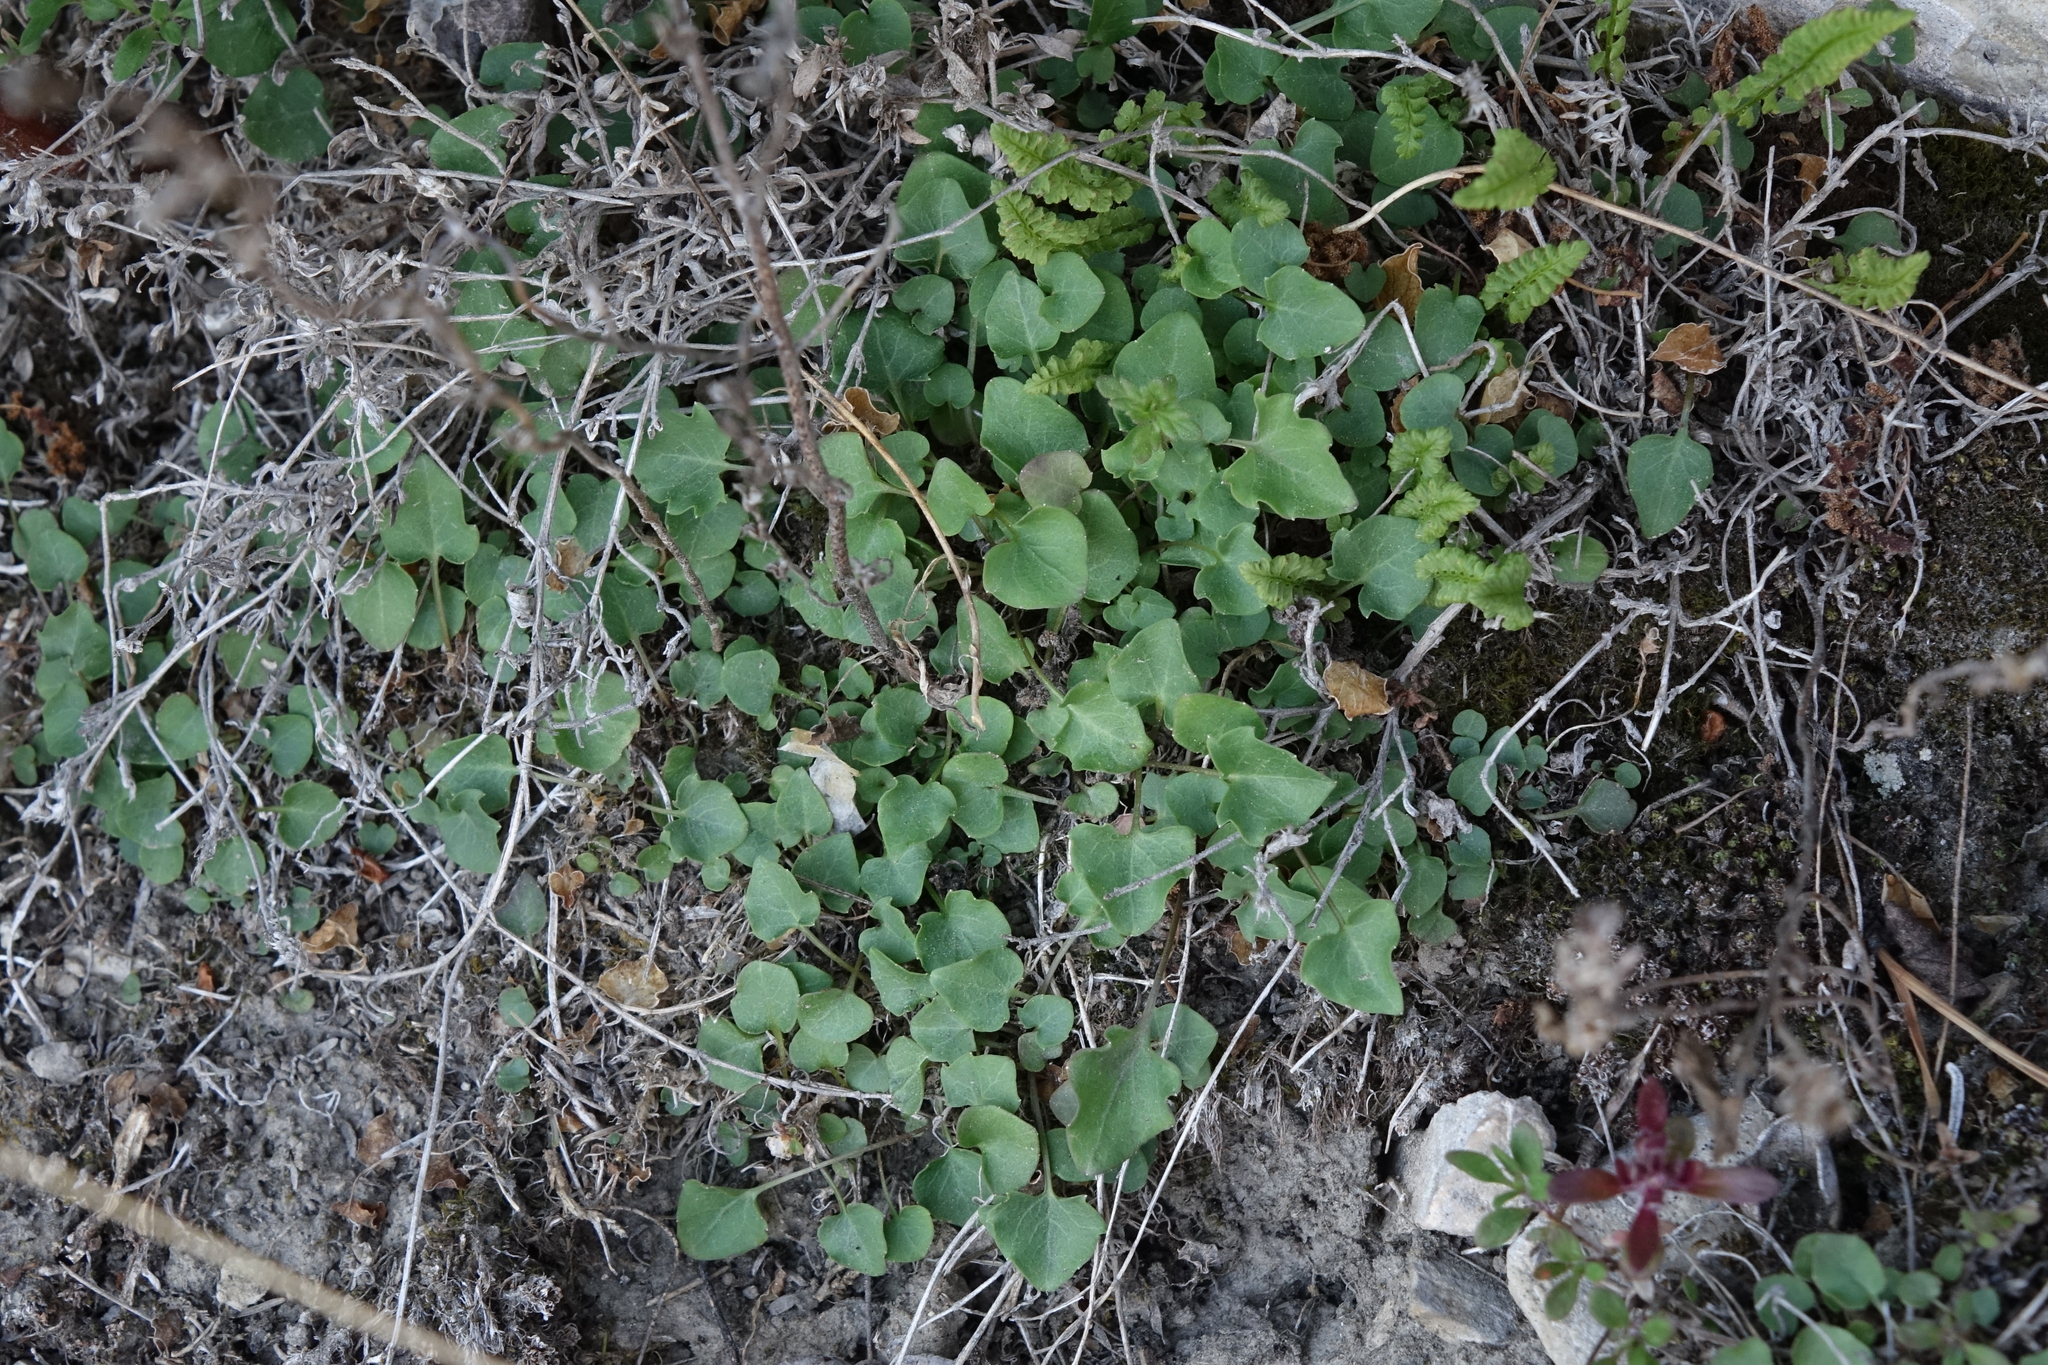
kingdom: Plantae
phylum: Tracheophyta
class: Magnoliopsida
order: Asterales
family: Campanulaceae
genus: Campanula
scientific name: Campanula rotundifolia
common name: Harebell
